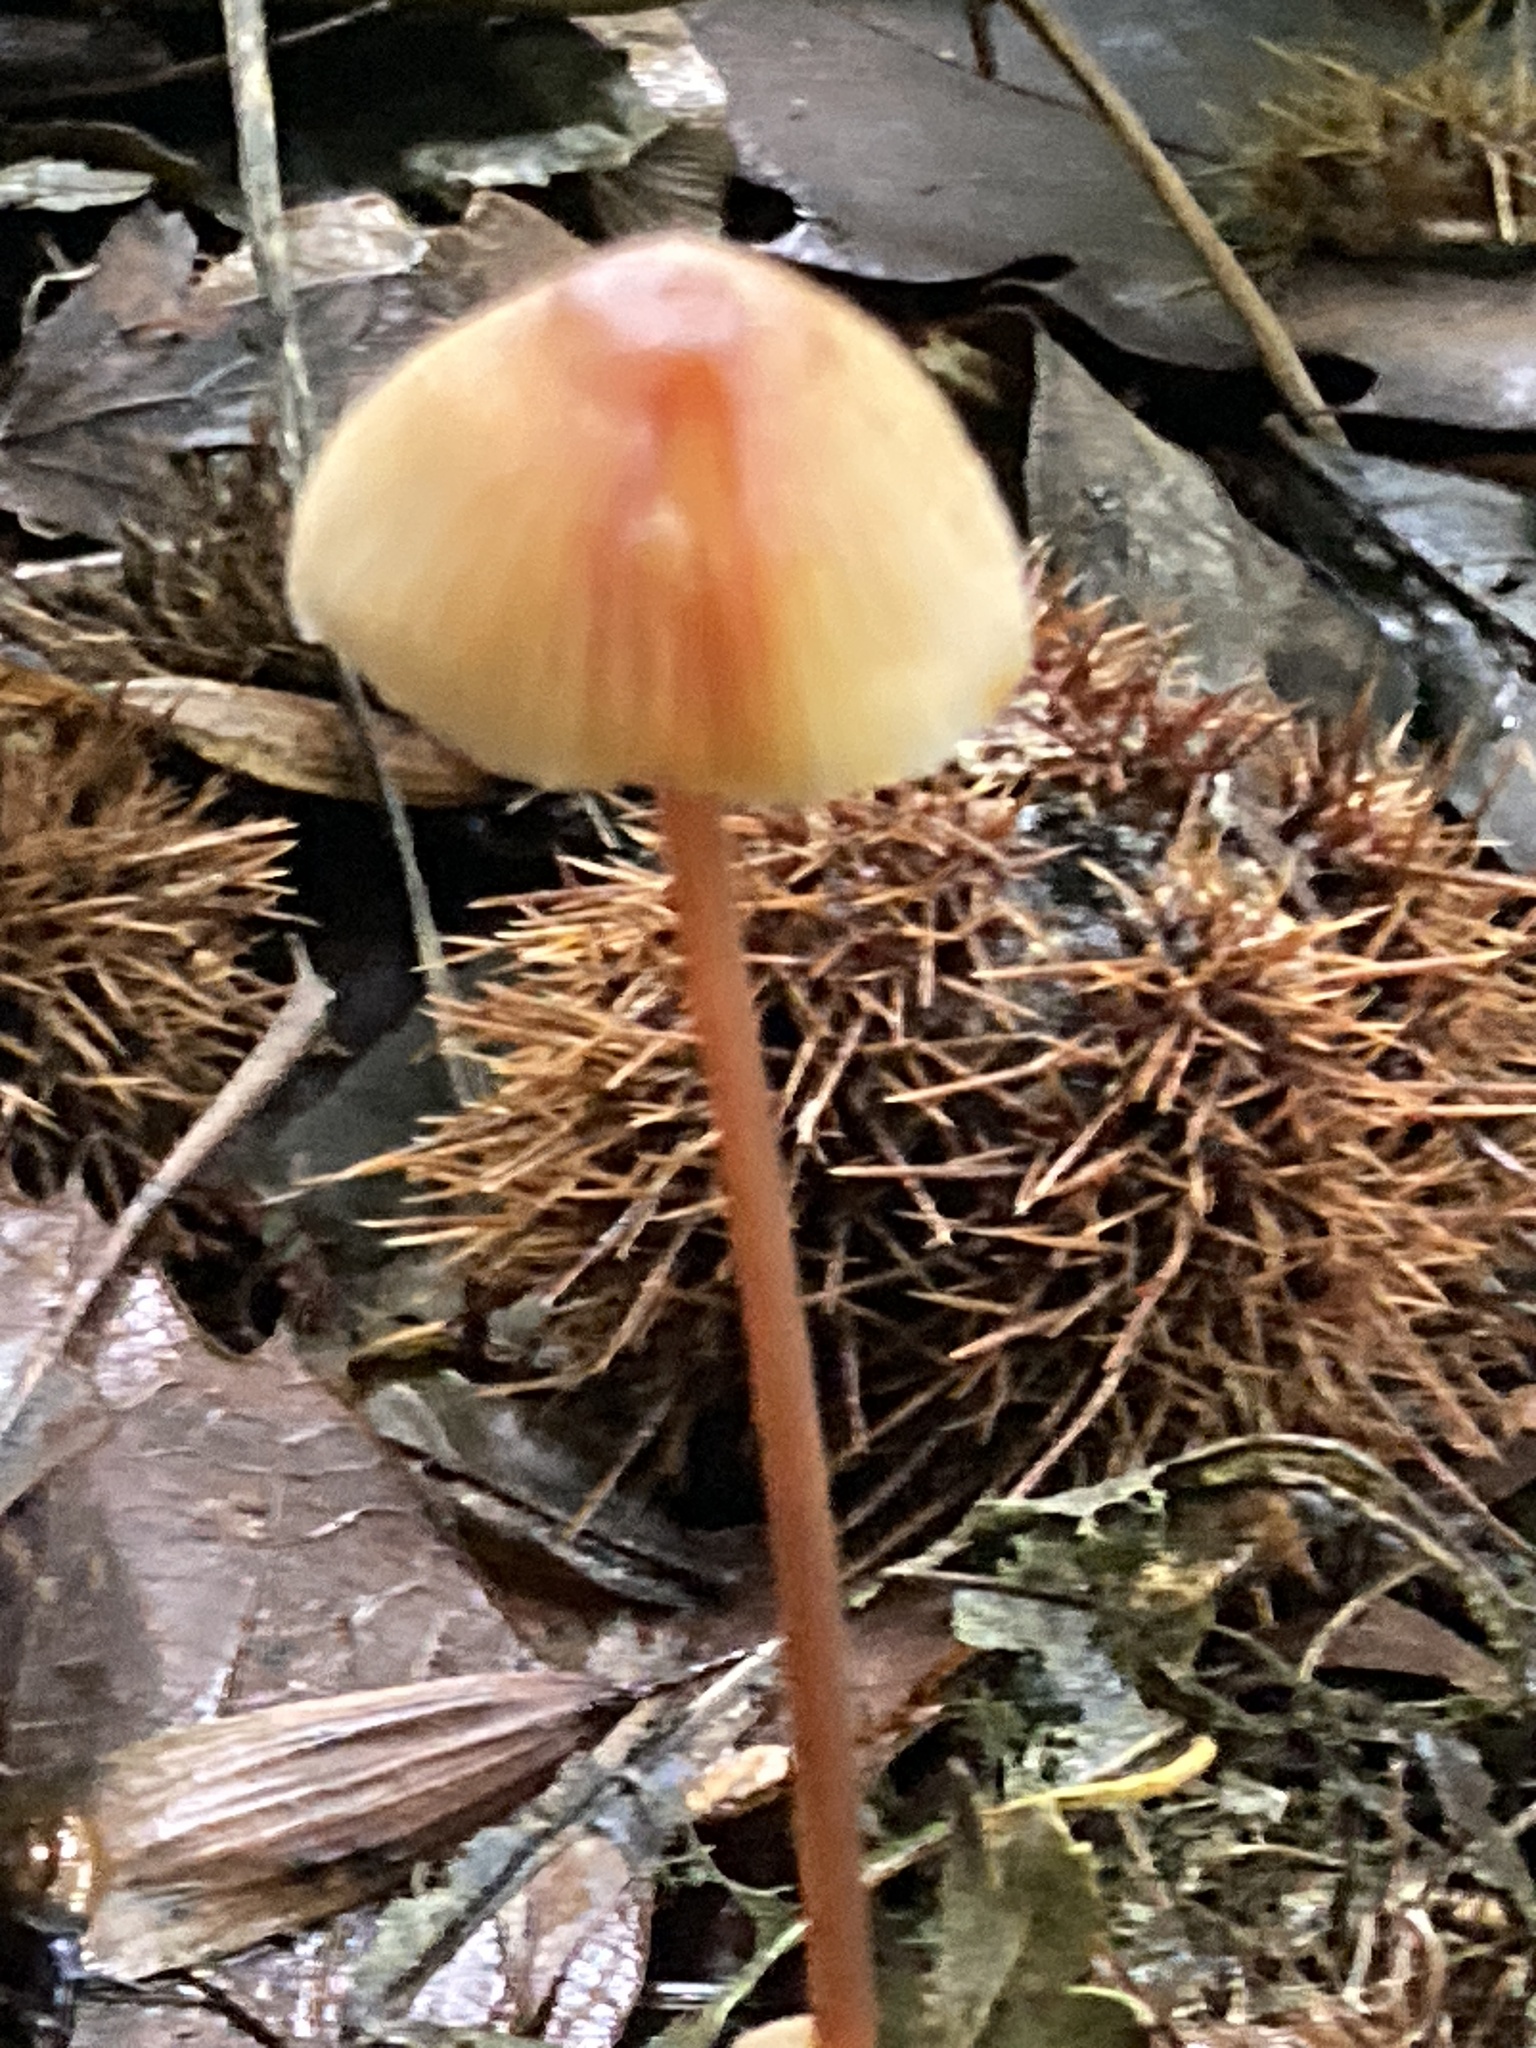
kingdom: Fungi
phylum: Basidiomycota
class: Agaricomycetes
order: Agaricales
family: Mycenaceae
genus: Mycena
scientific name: Mycena crocata
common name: Saffrondrop bonnet
